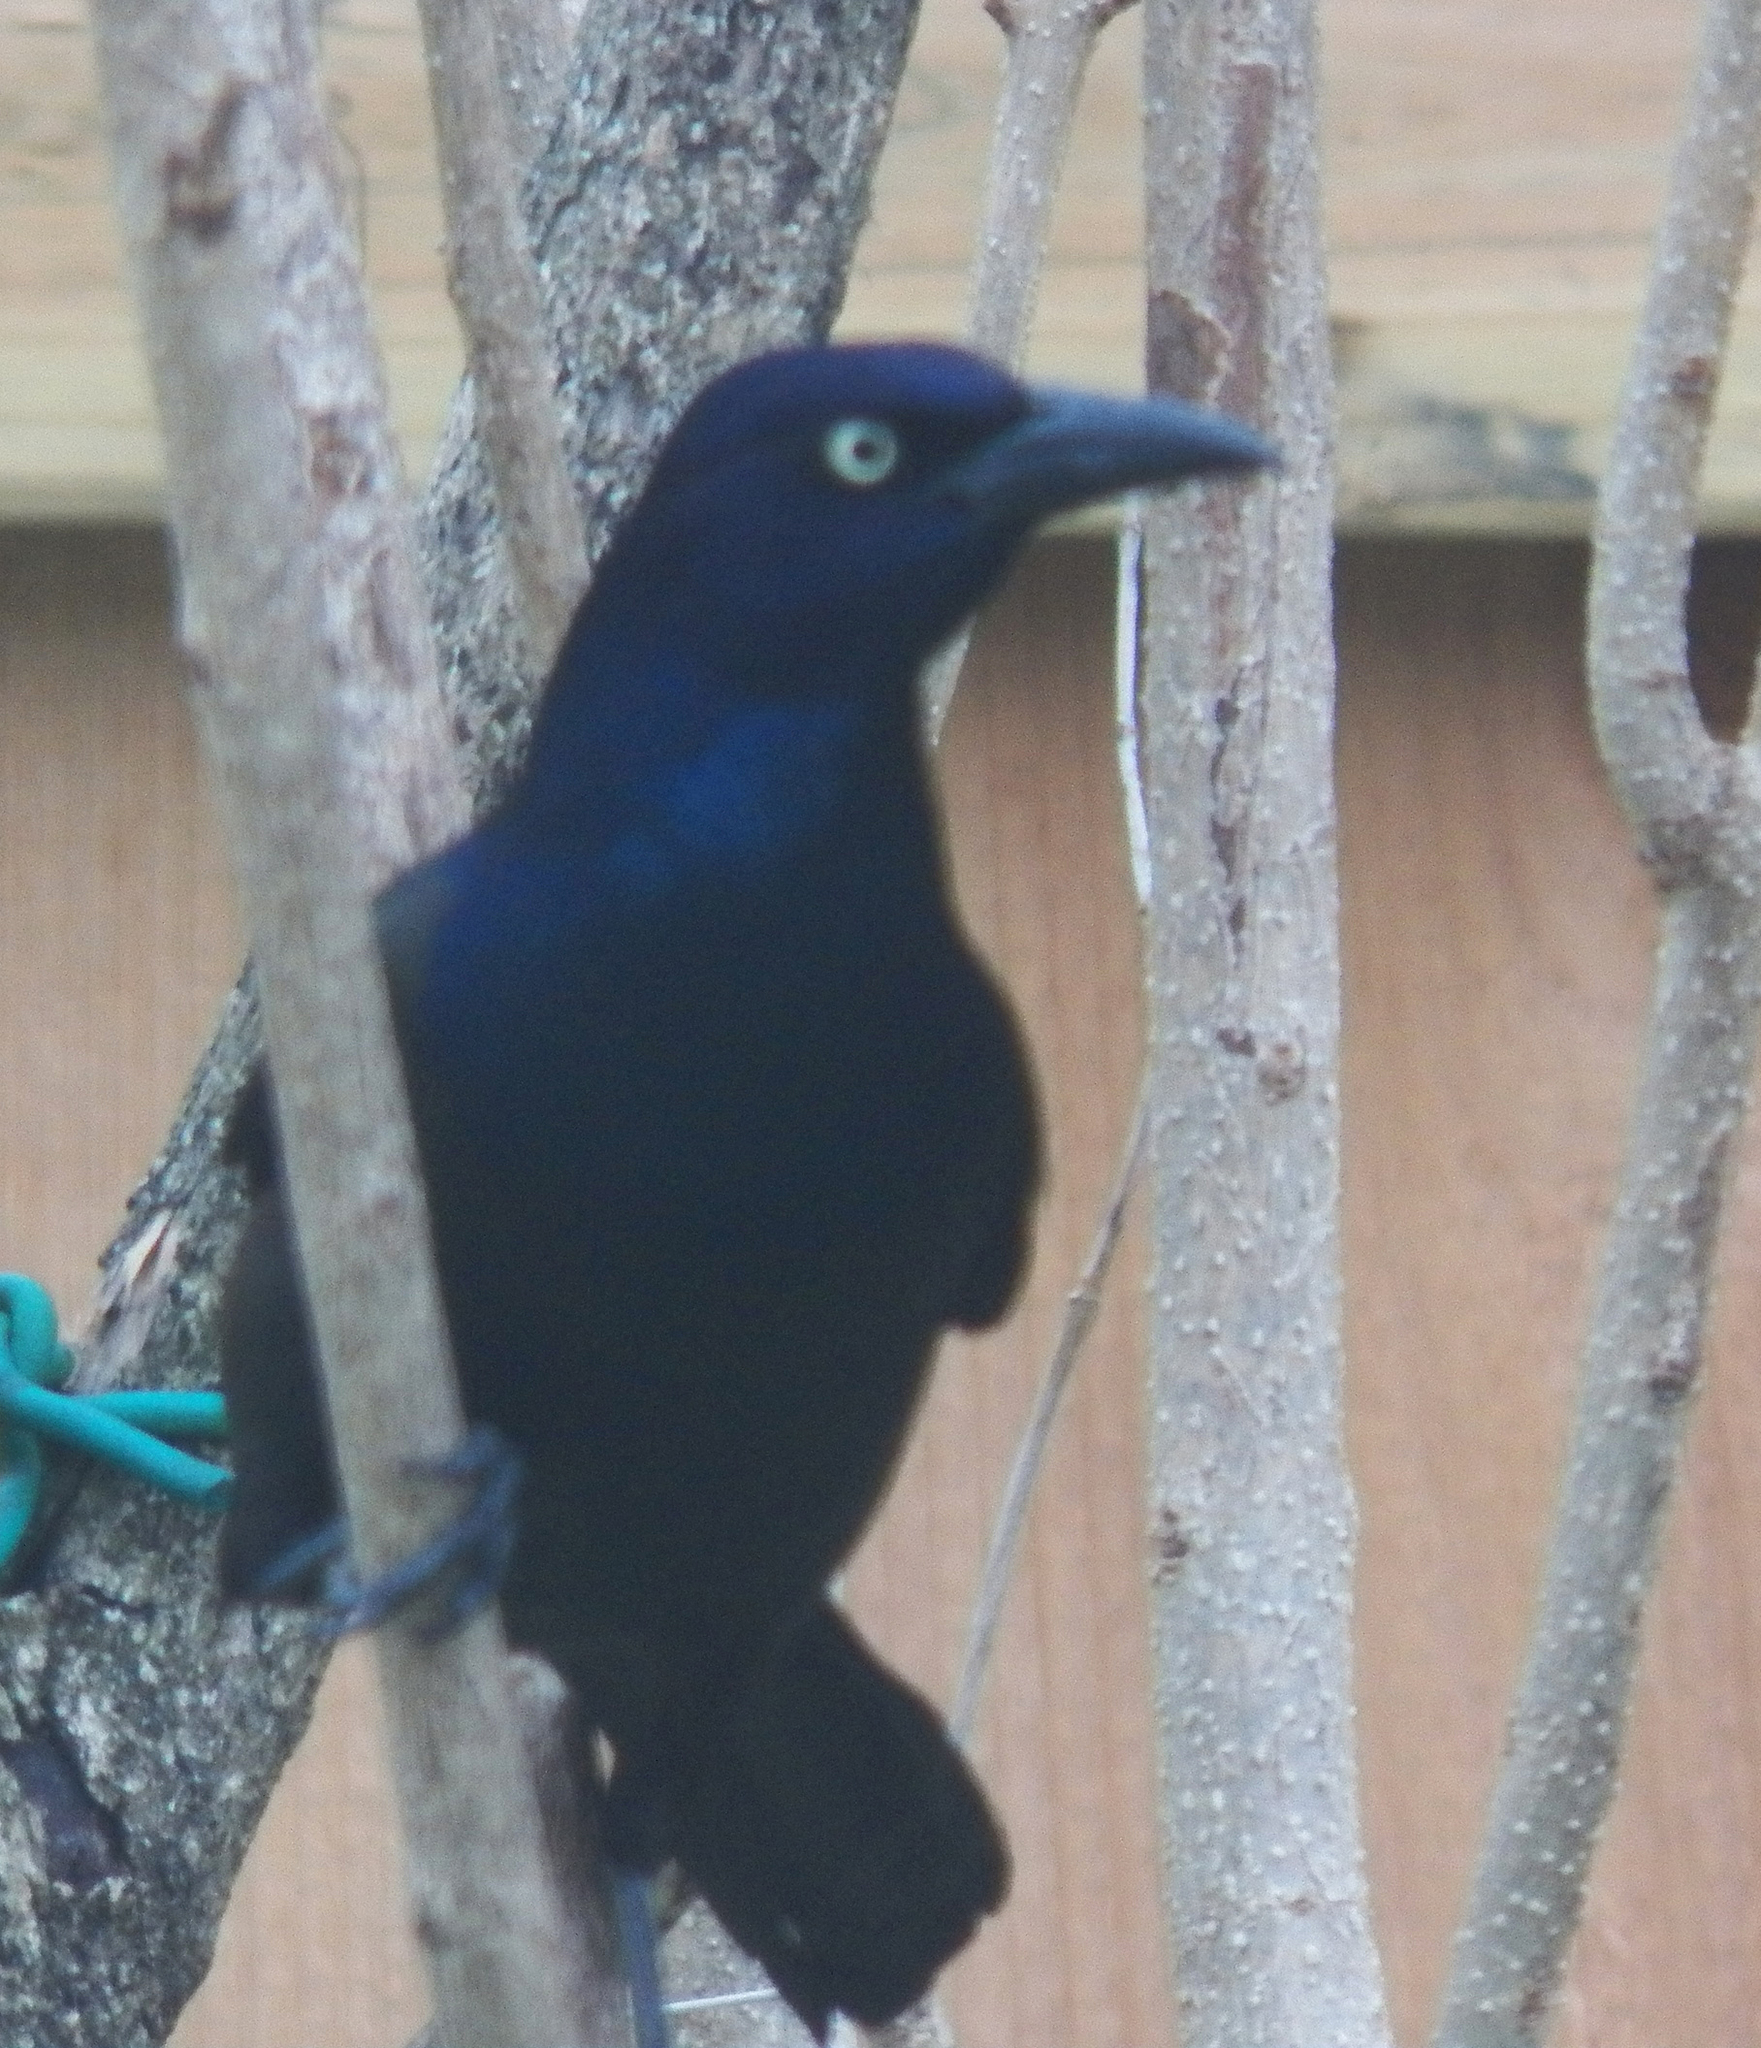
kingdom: Animalia
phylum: Chordata
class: Aves
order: Passeriformes
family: Icteridae
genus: Quiscalus
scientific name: Quiscalus quiscula
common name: Common grackle
